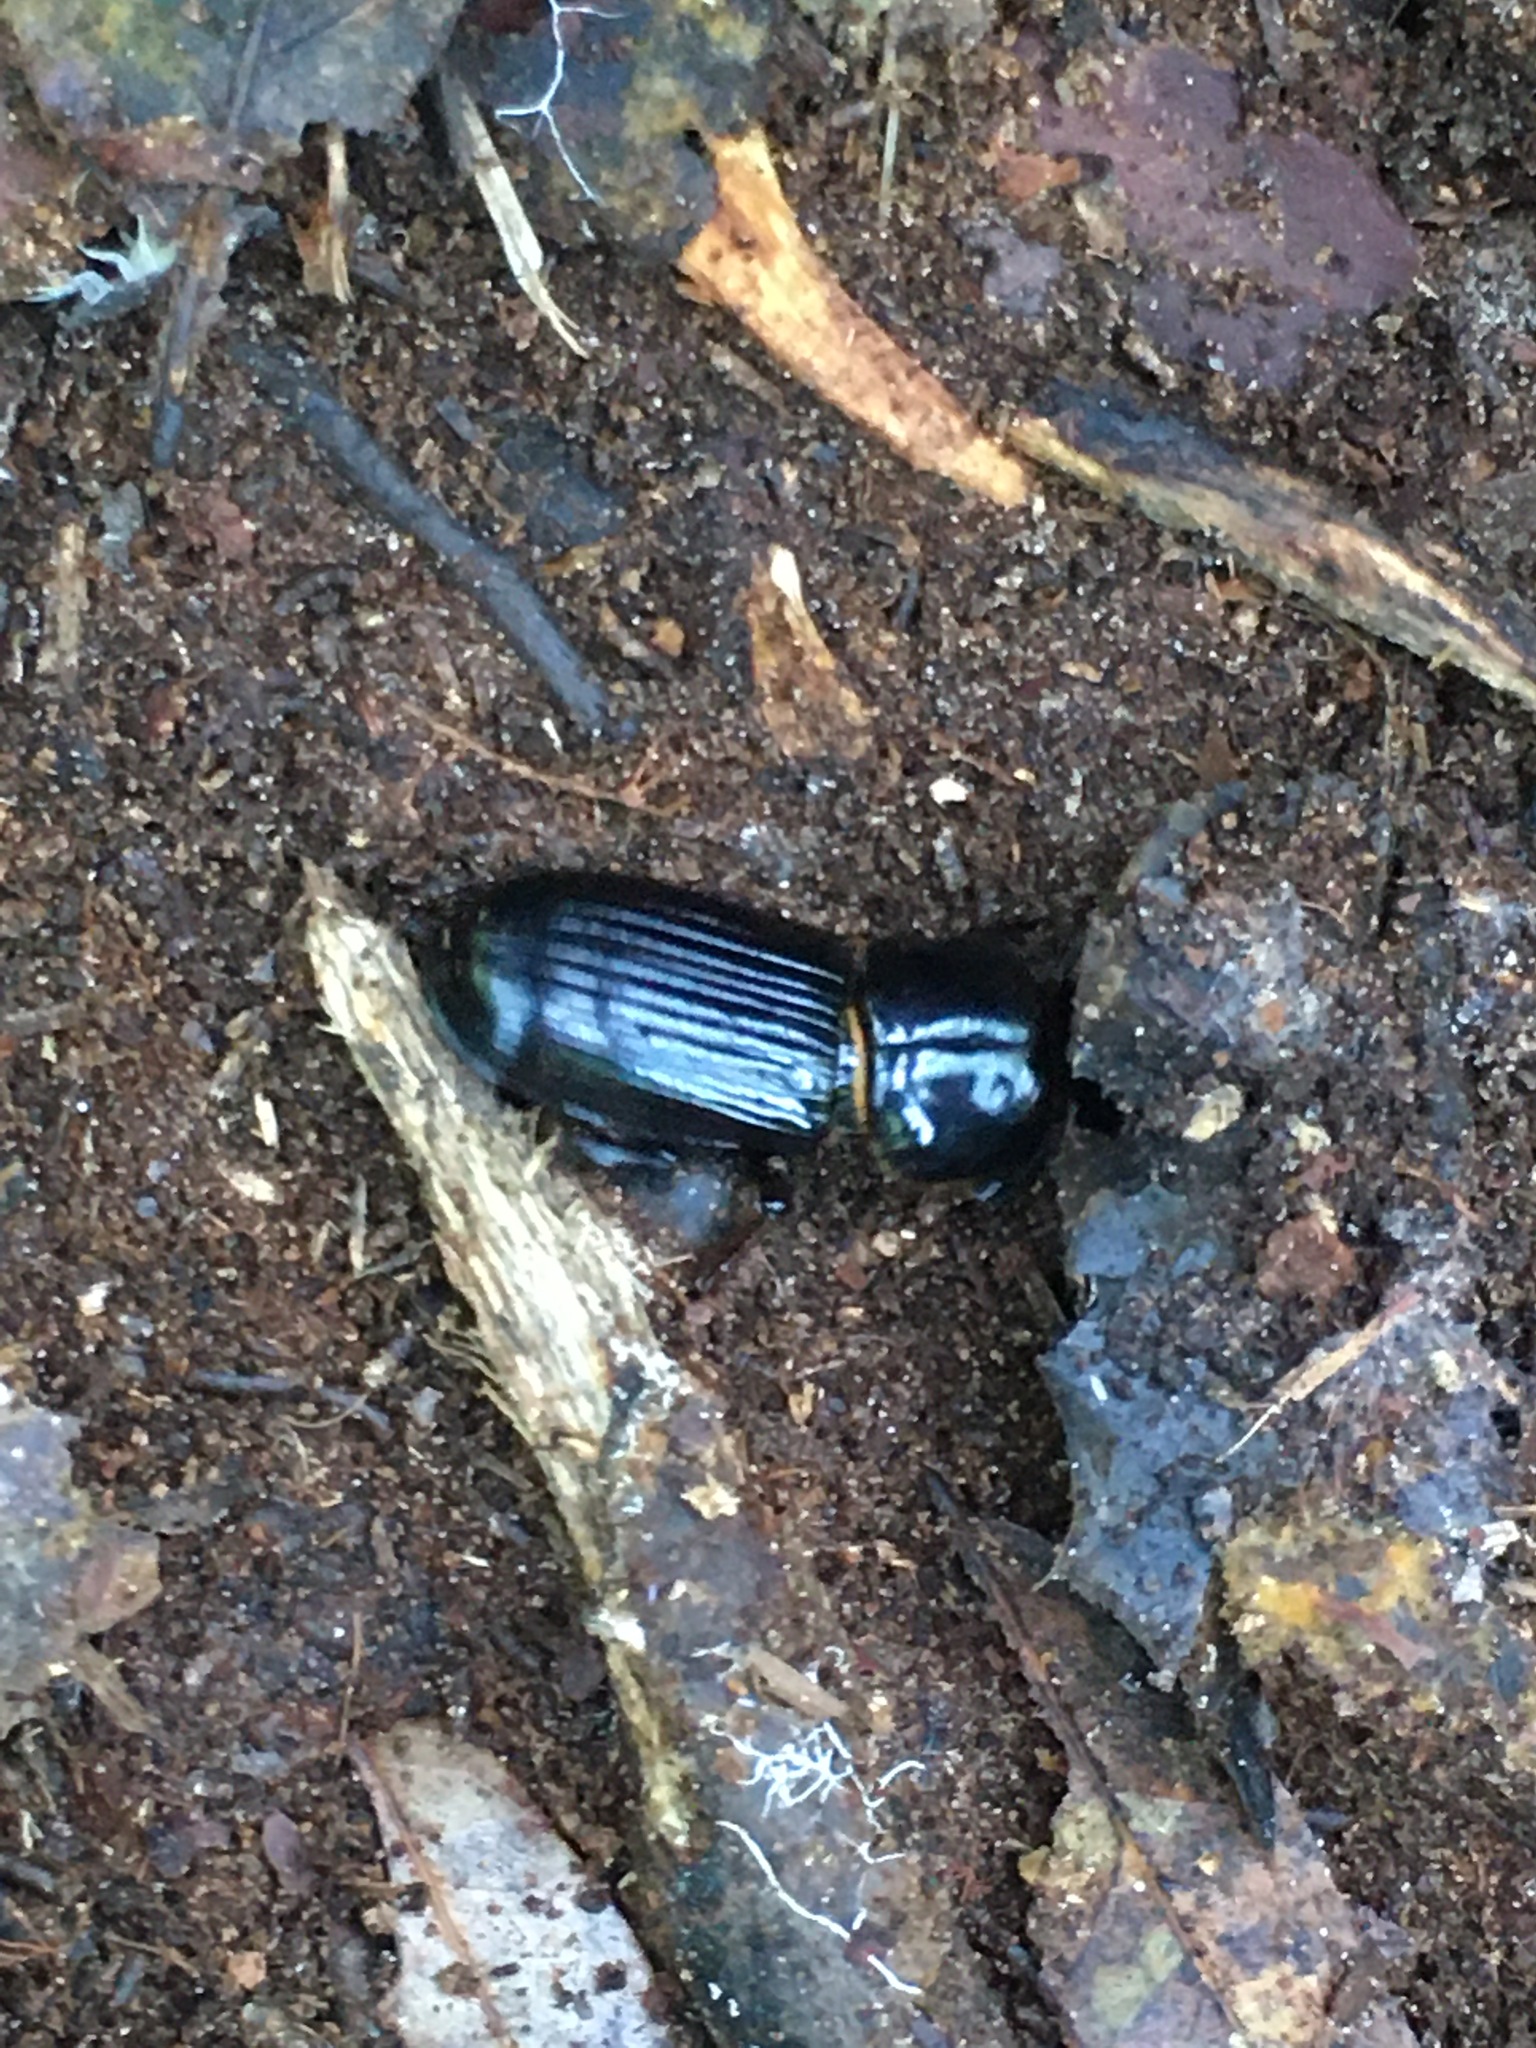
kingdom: Animalia
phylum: Arthropoda
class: Insecta
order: Coleoptera
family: Passalidae
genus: Odontotaenius
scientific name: Odontotaenius disjunctus
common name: Patent leather beetle
